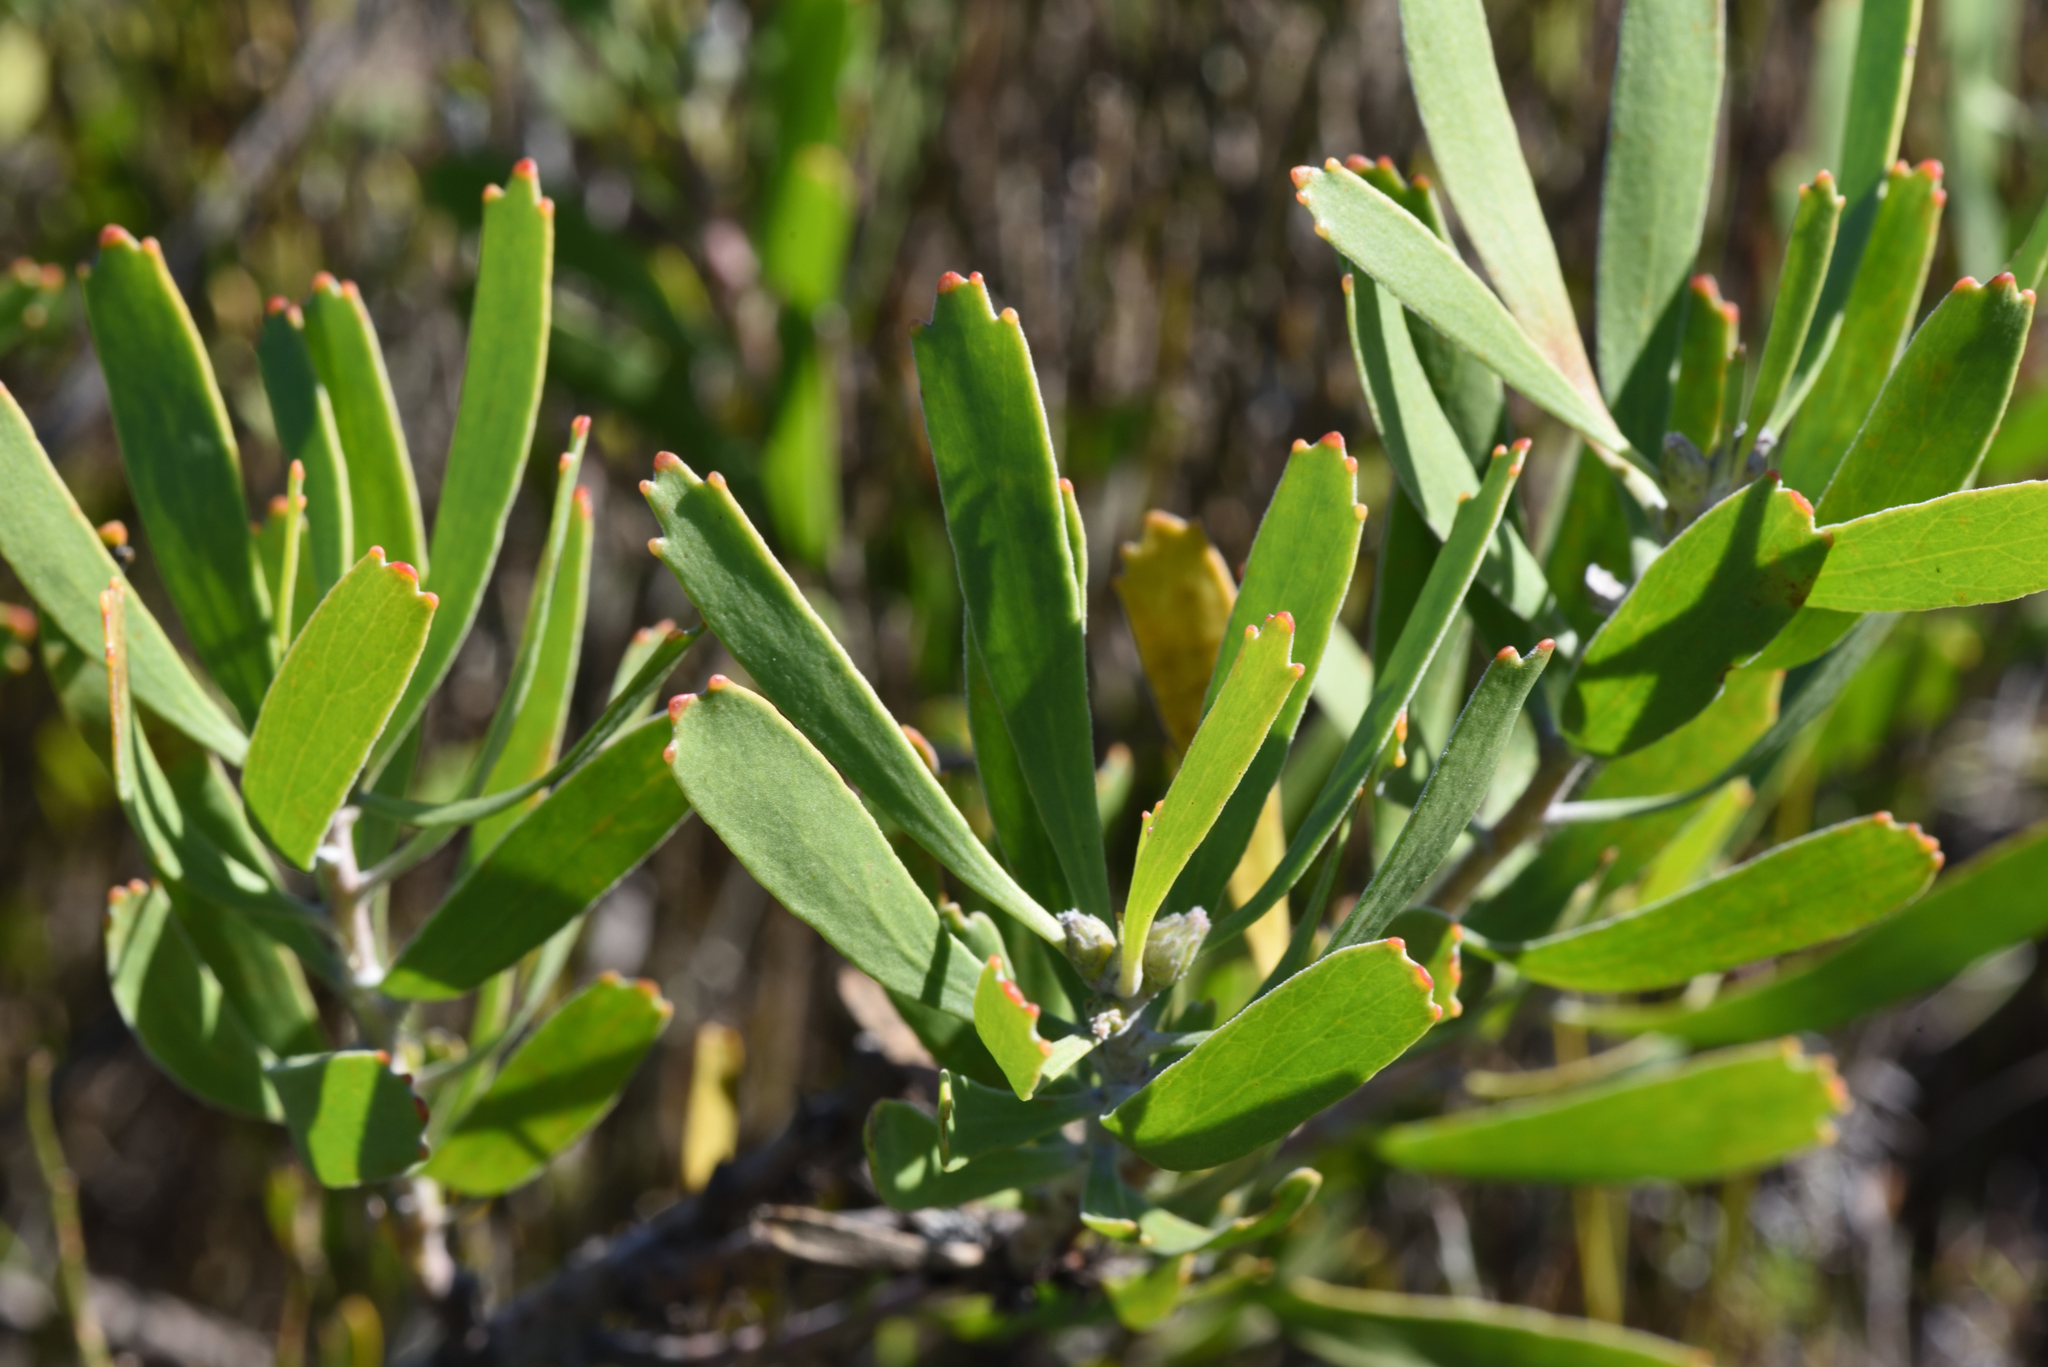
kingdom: Plantae
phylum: Tracheophyta
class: Magnoliopsida
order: Proteales
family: Proteaceae
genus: Leucospermum
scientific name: Leucospermum cuneiforme
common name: Common pincushion
